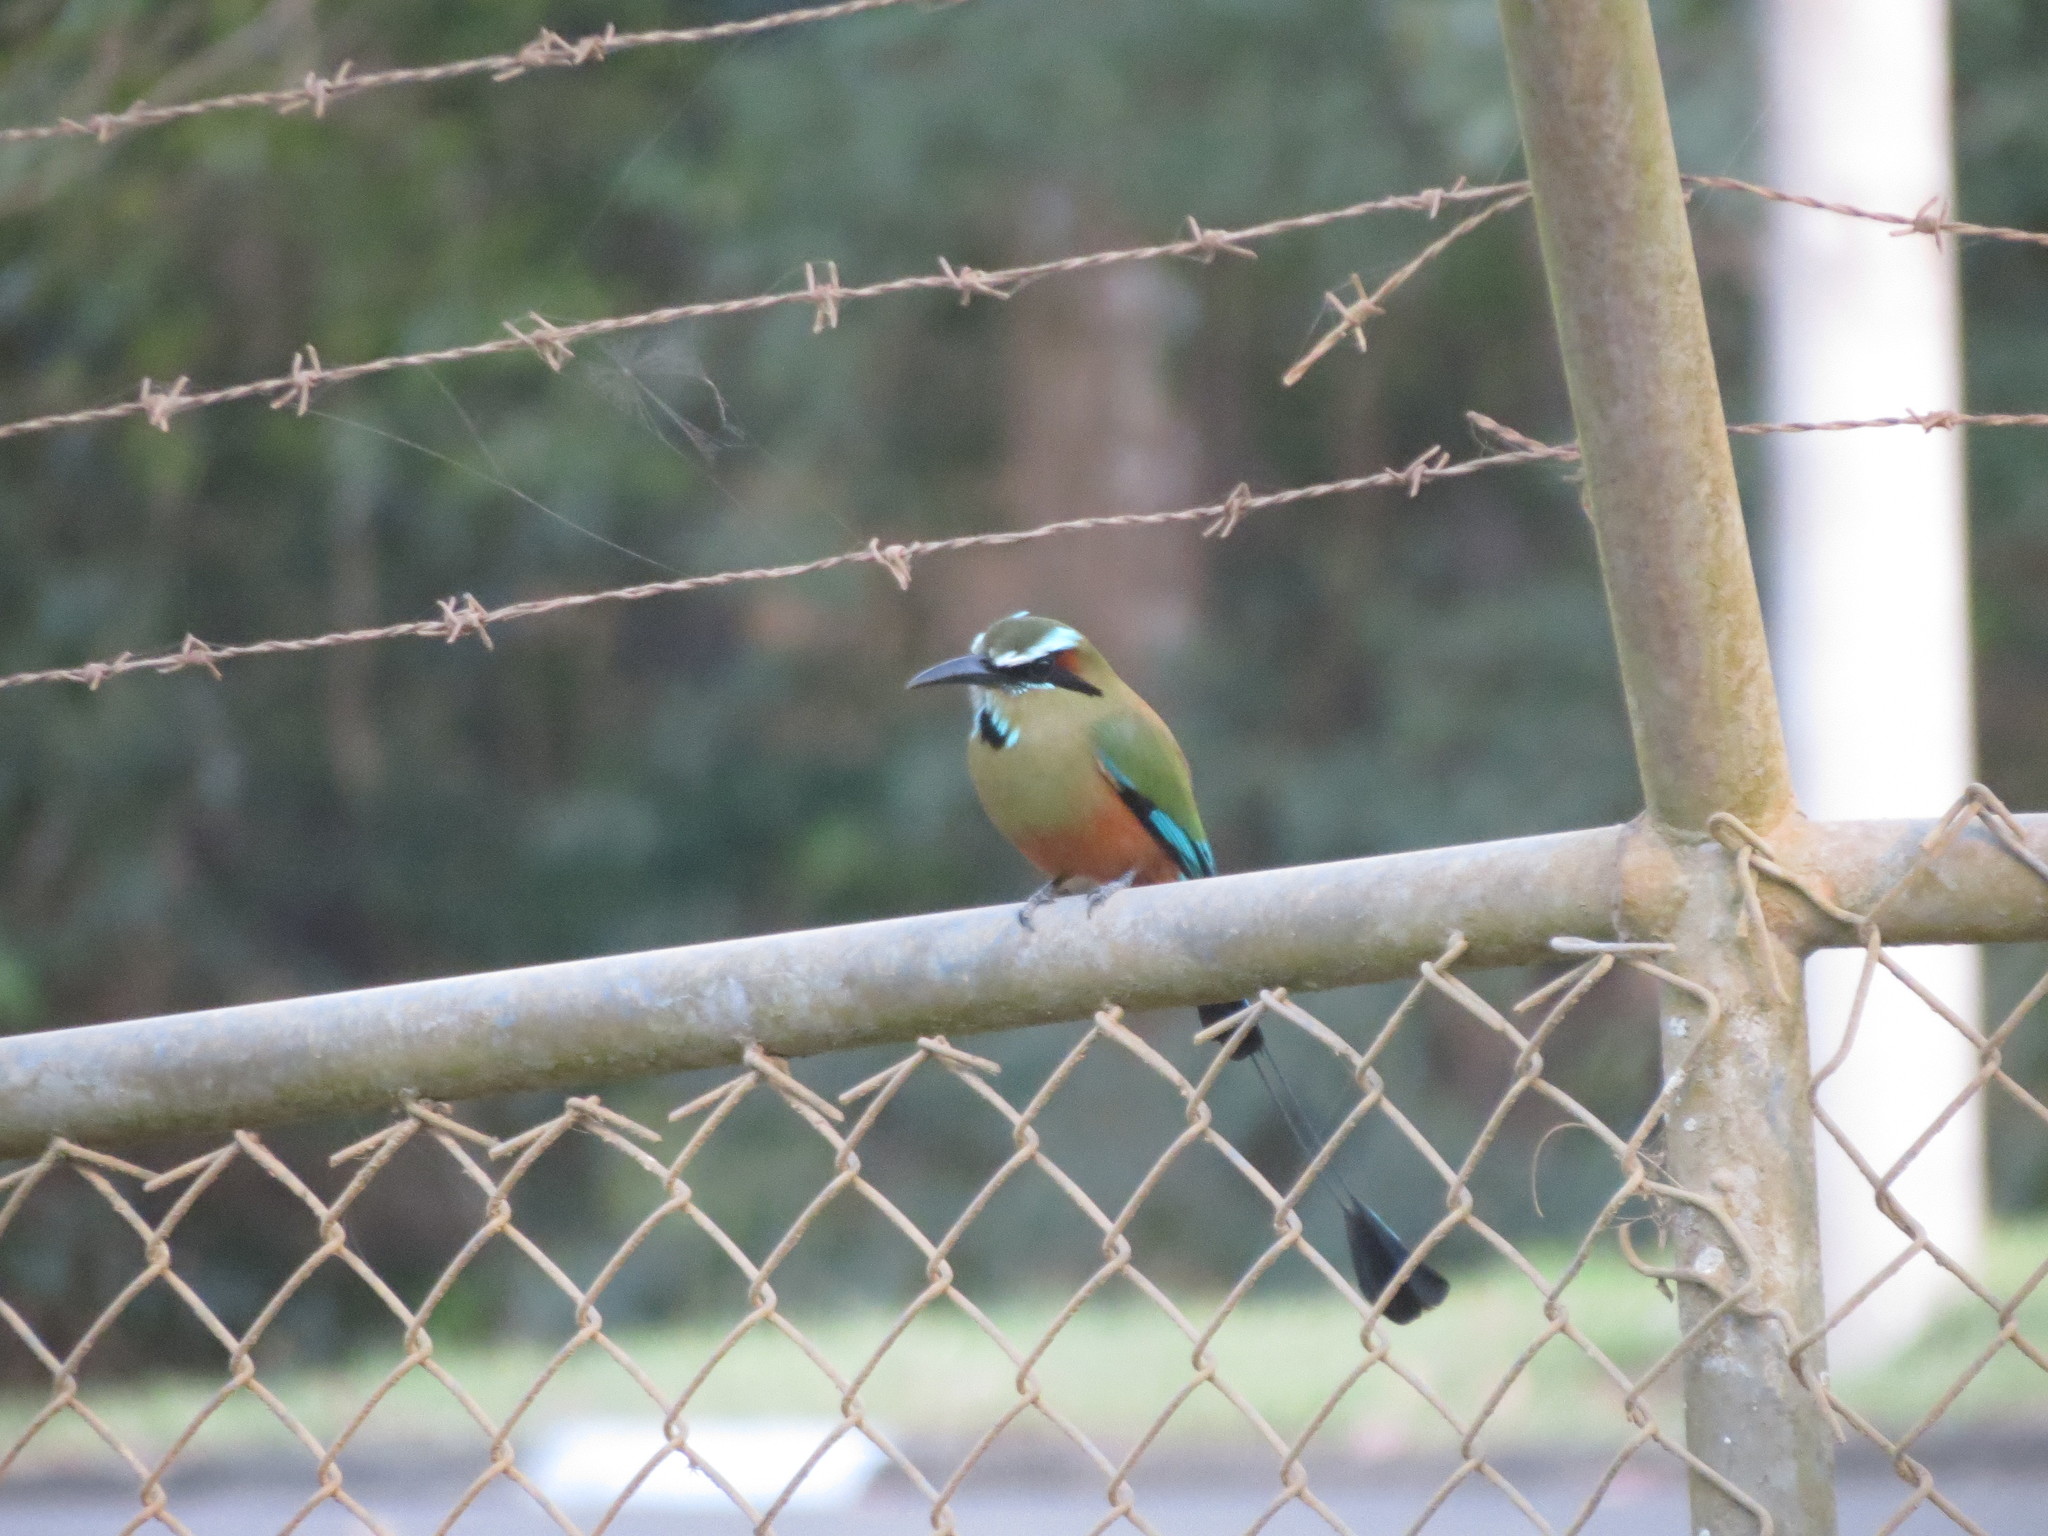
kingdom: Animalia
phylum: Chordata
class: Aves
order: Coraciiformes
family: Momotidae
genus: Eumomota
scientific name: Eumomota superciliosa
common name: Turquoise-browed motmot
